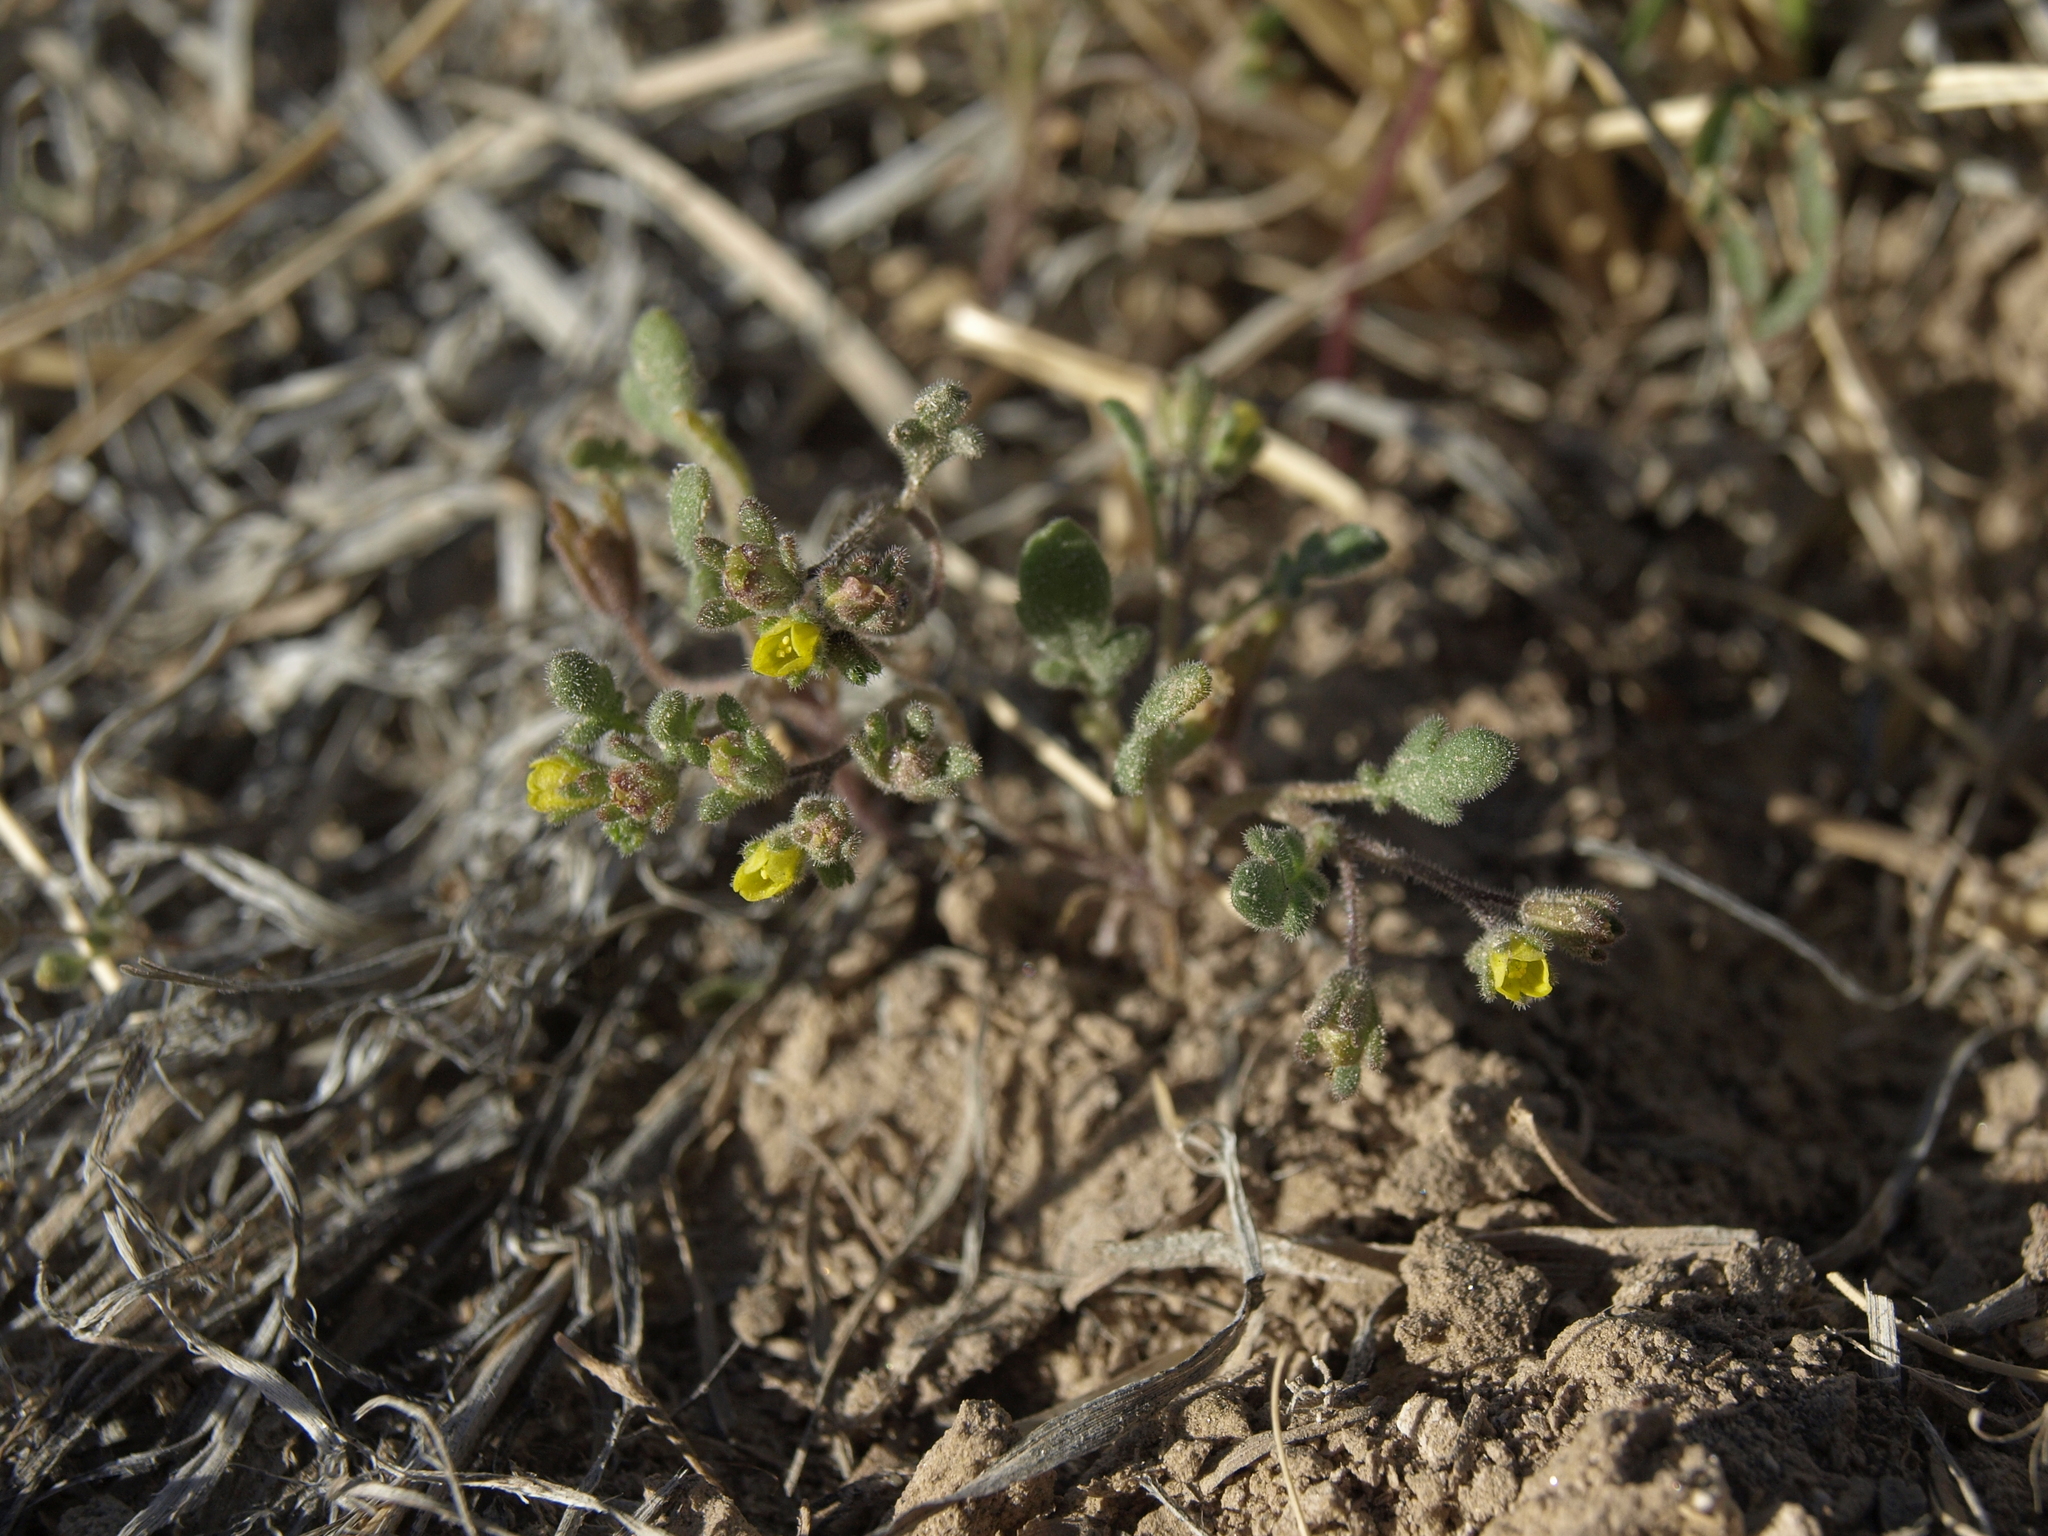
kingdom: Plantae
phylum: Tracheophyta
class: Magnoliopsida
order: Boraginales
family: Hydrophyllaceae
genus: Phacelia
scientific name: Phacelia inyoensis
